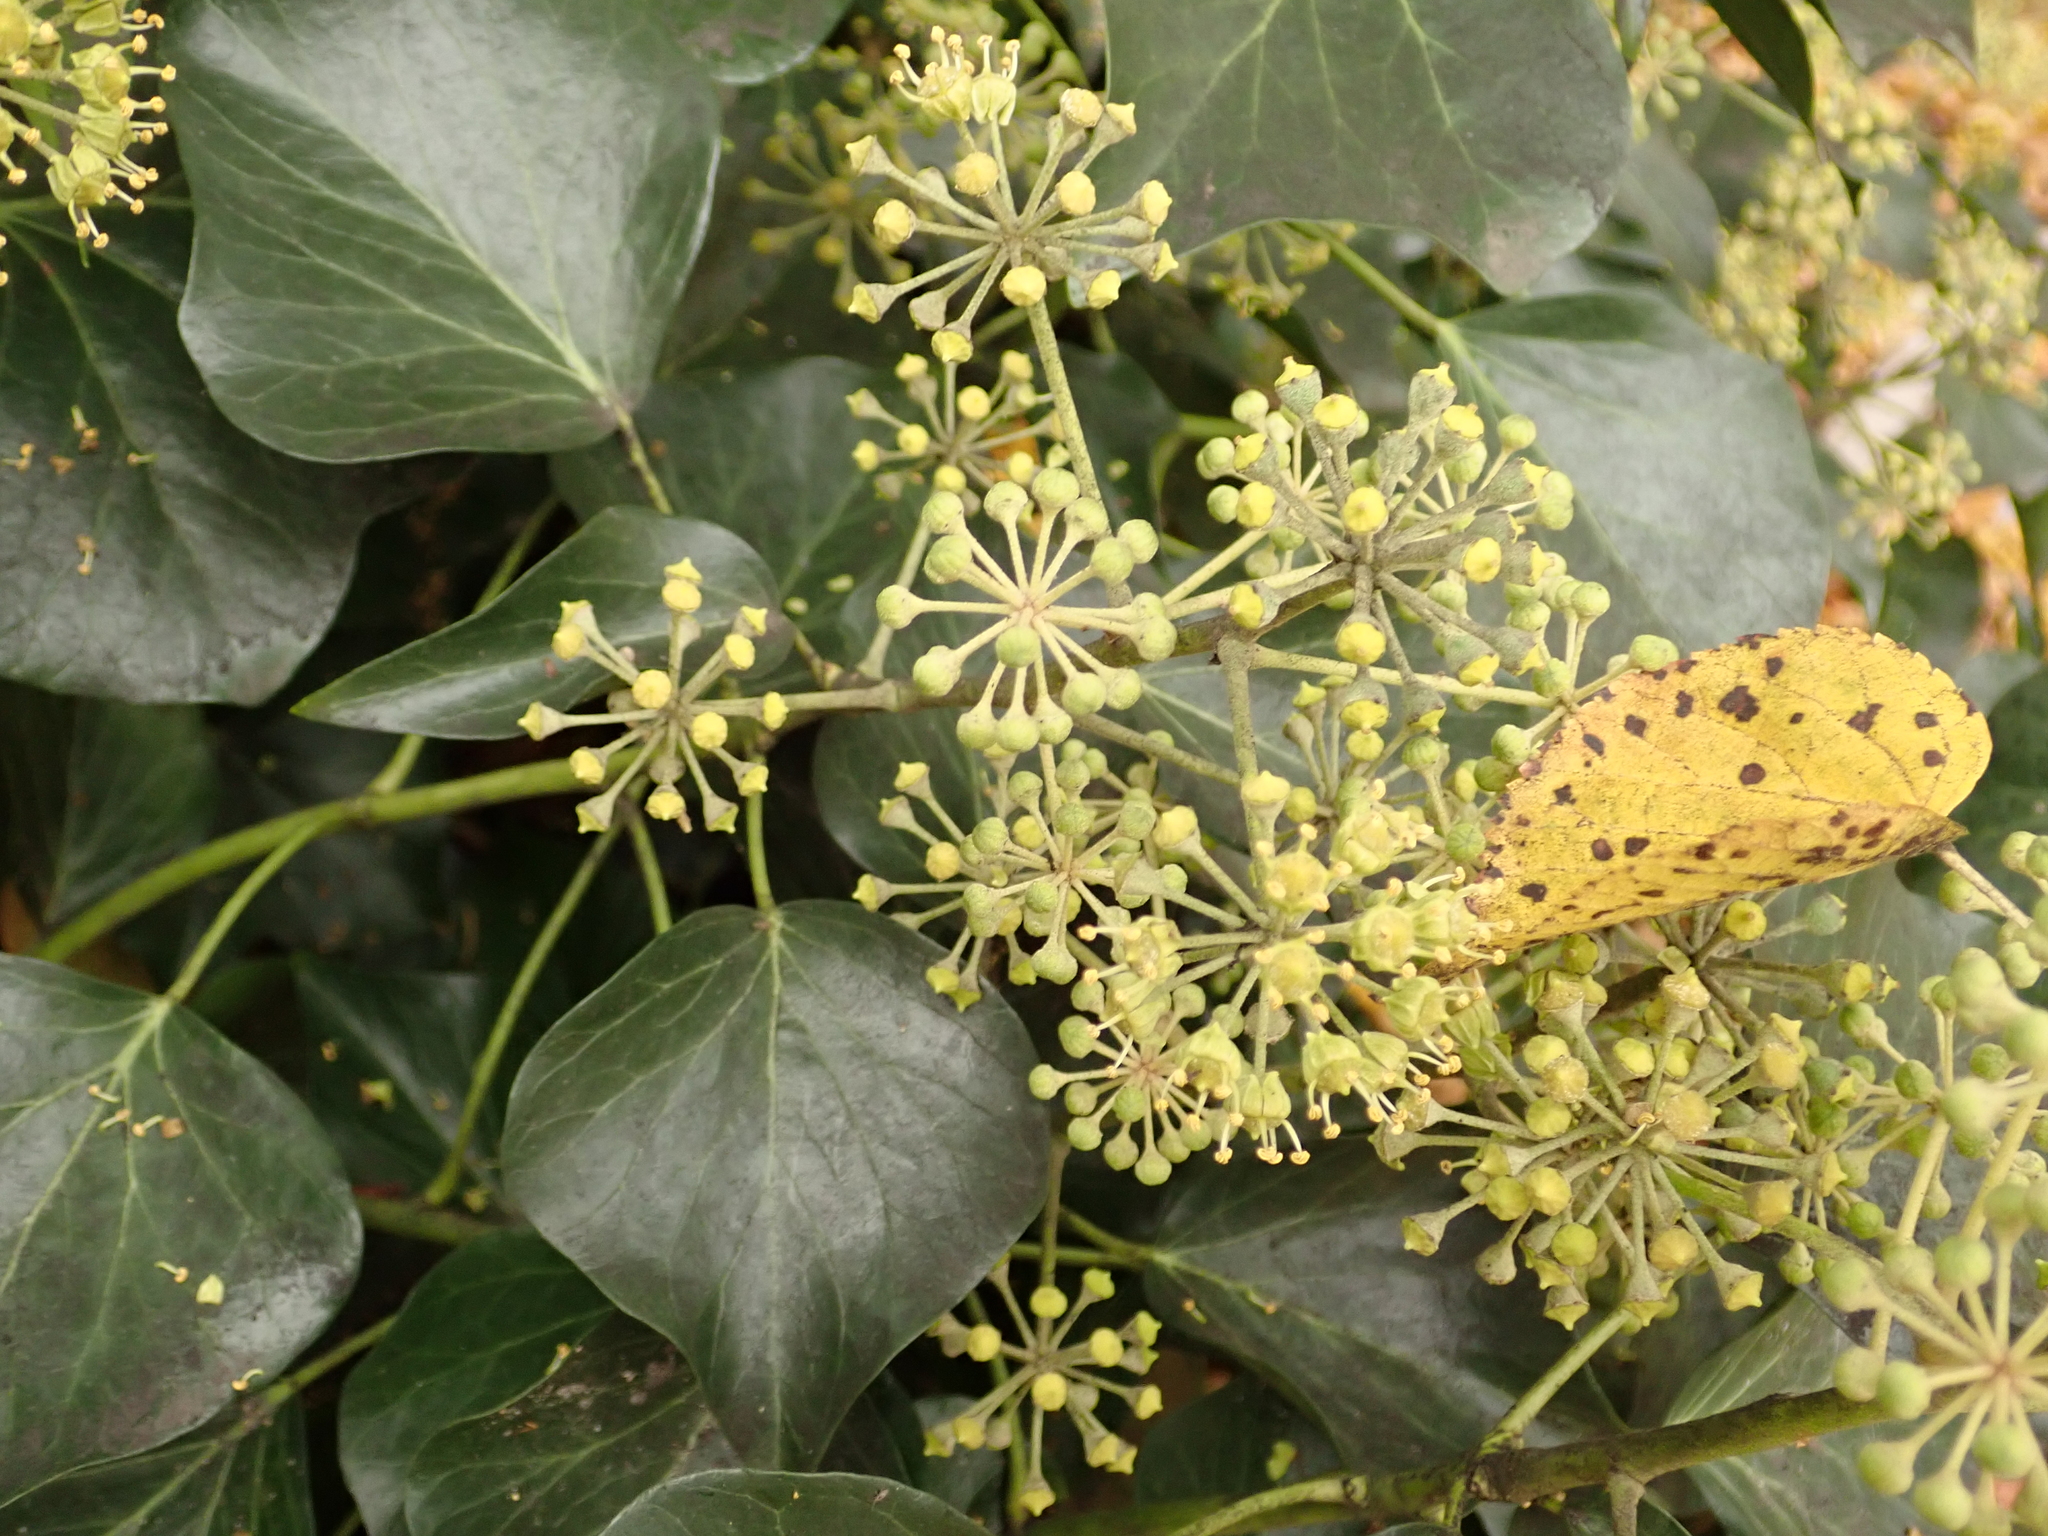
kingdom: Plantae
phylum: Tracheophyta
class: Magnoliopsida
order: Apiales
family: Araliaceae
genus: Hedera
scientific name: Hedera helix
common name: Ivy
